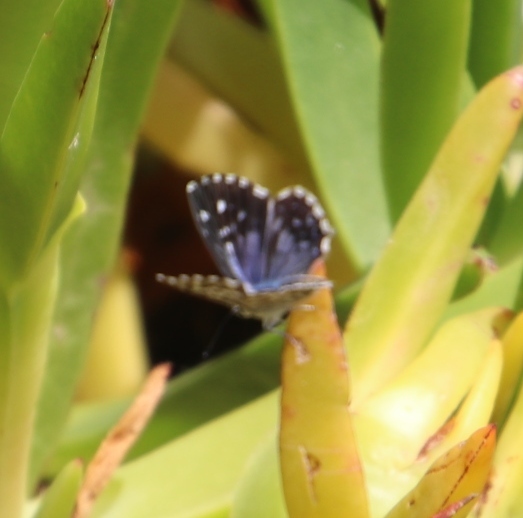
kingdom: Animalia
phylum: Arthropoda
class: Insecta
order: Lepidoptera
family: Lycaenidae
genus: Tarucus
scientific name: Tarucus thespis
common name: Vivid dotted blue
